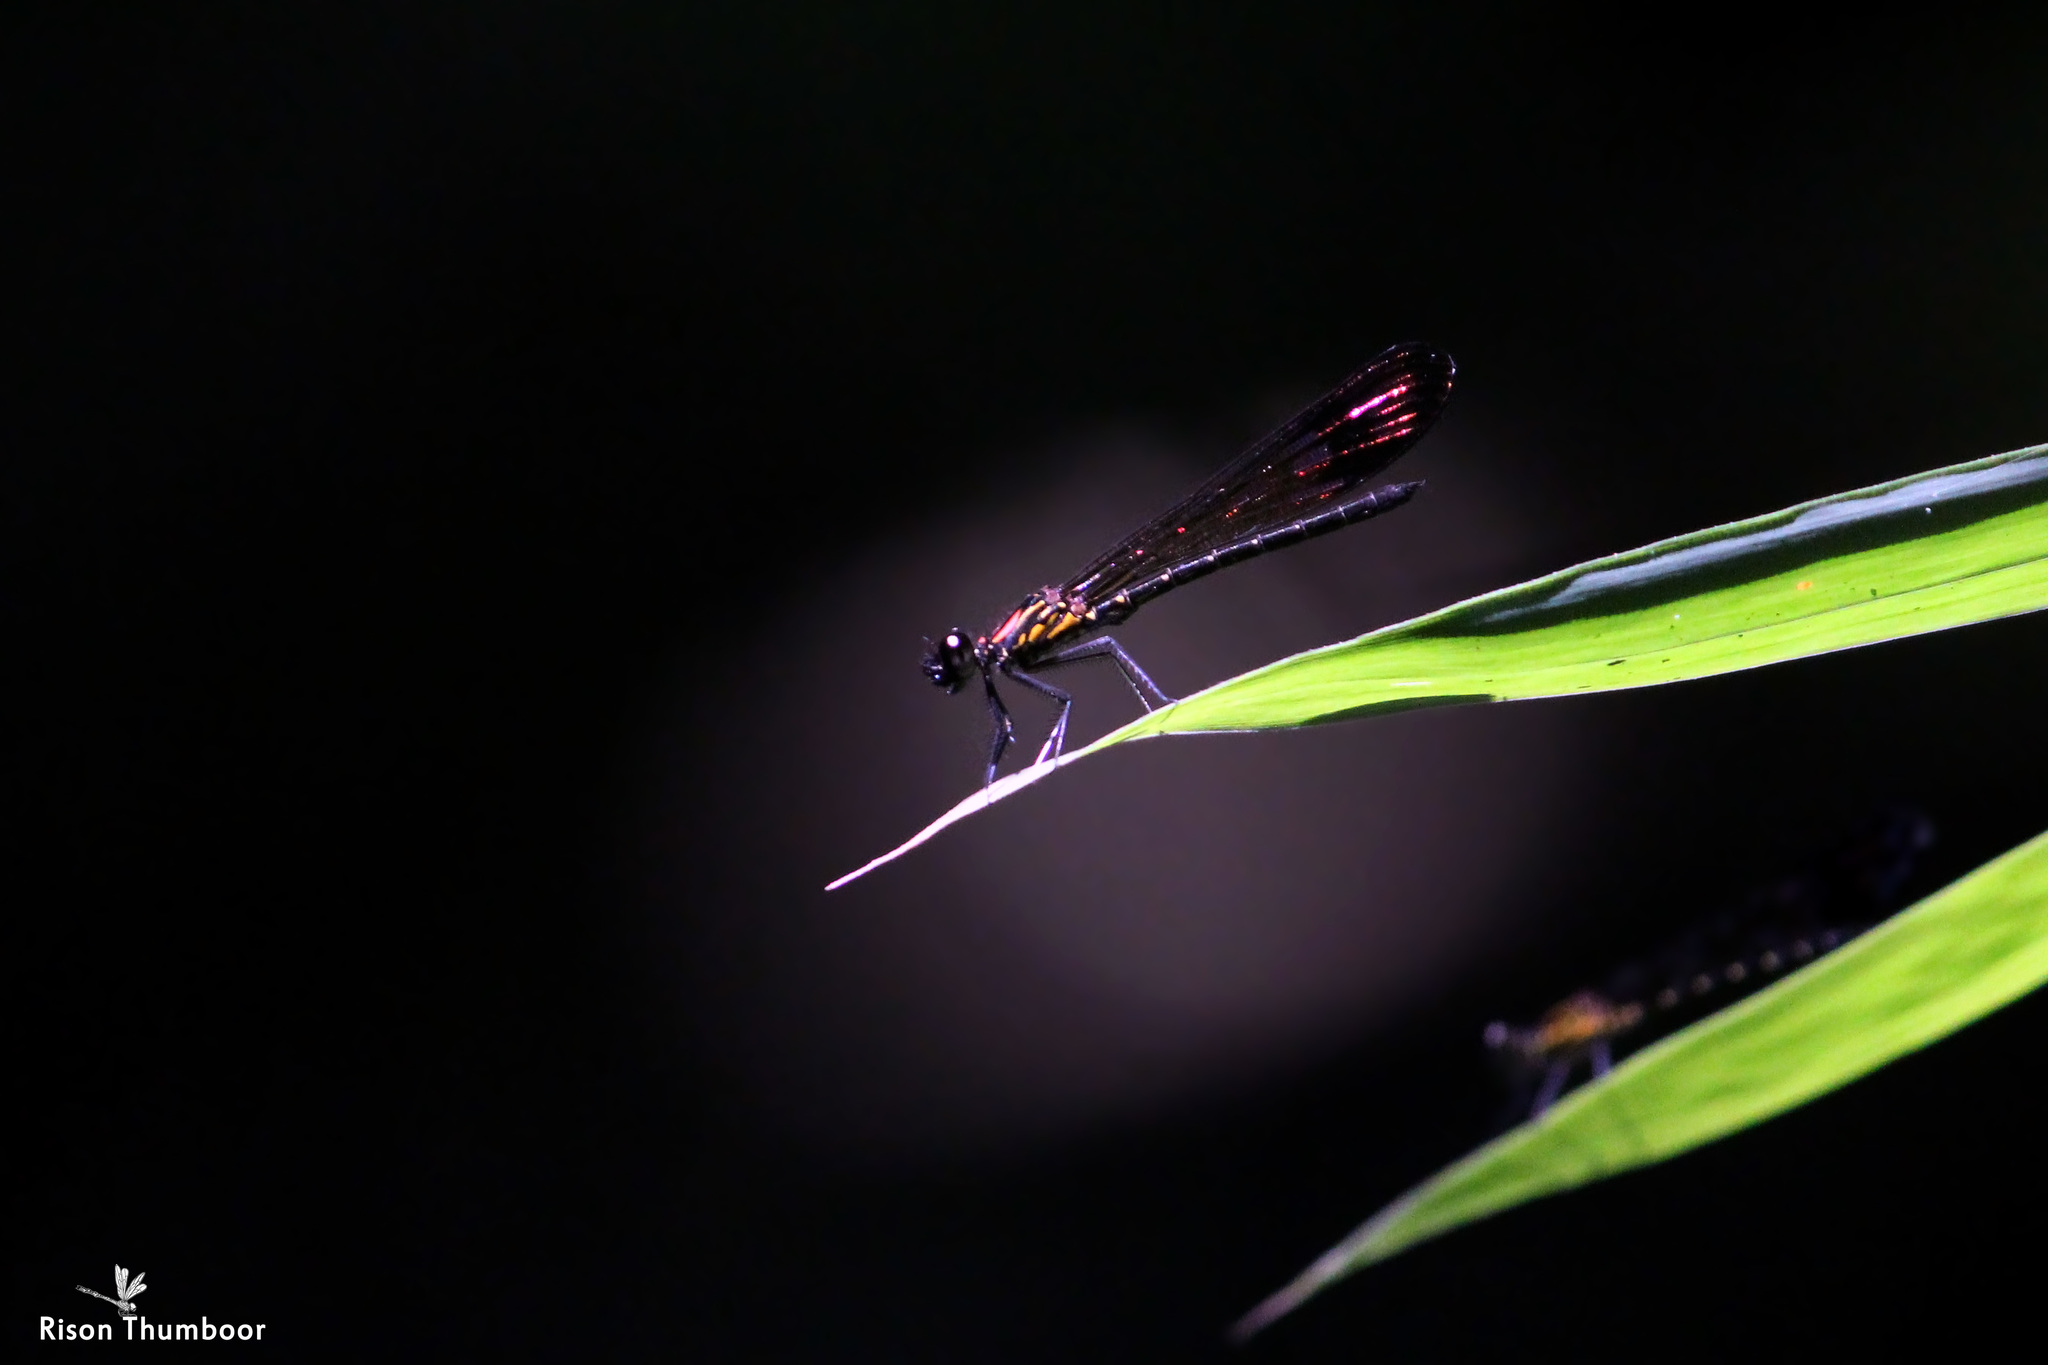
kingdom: Animalia
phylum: Arthropoda
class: Insecta
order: Odonata
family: Chlorocyphidae
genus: Heliocypha
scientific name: Heliocypha bisignata
